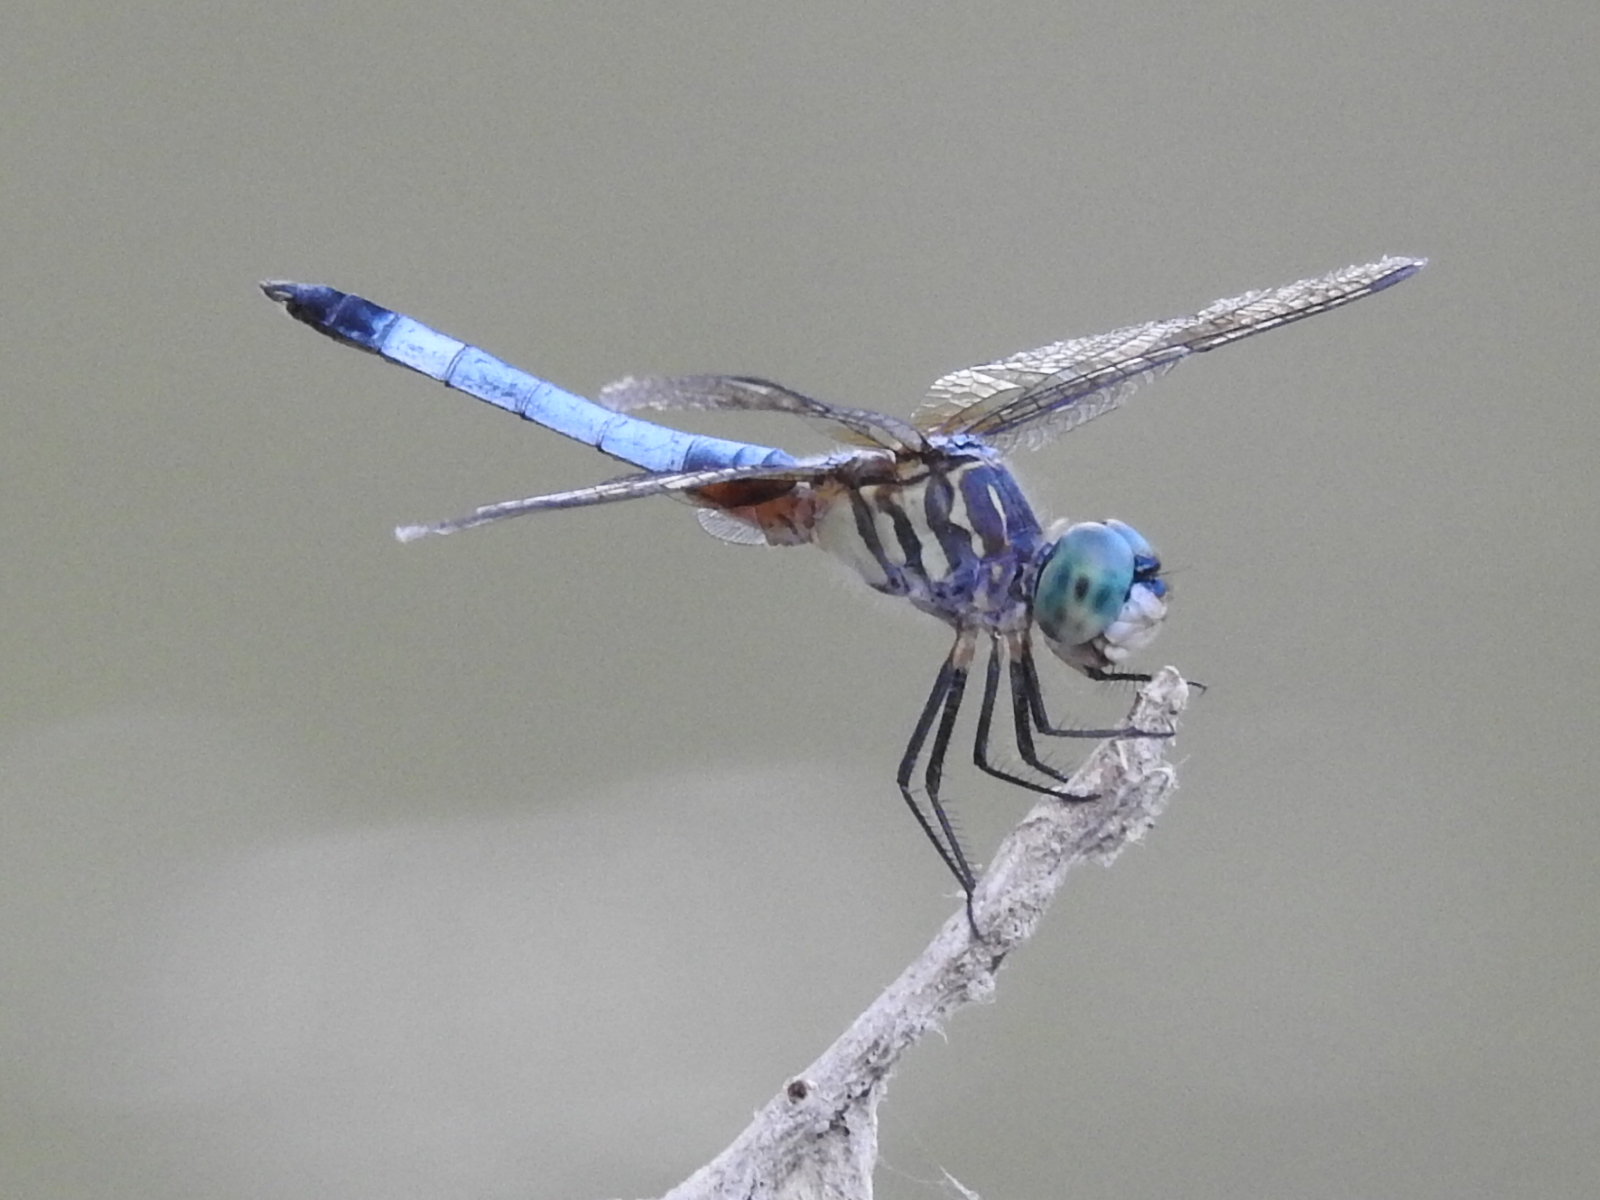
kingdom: Animalia
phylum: Arthropoda
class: Insecta
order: Odonata
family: Libellulidae
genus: Pachydiplax
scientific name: Pachydiplax longipennis
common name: Blue dasher
